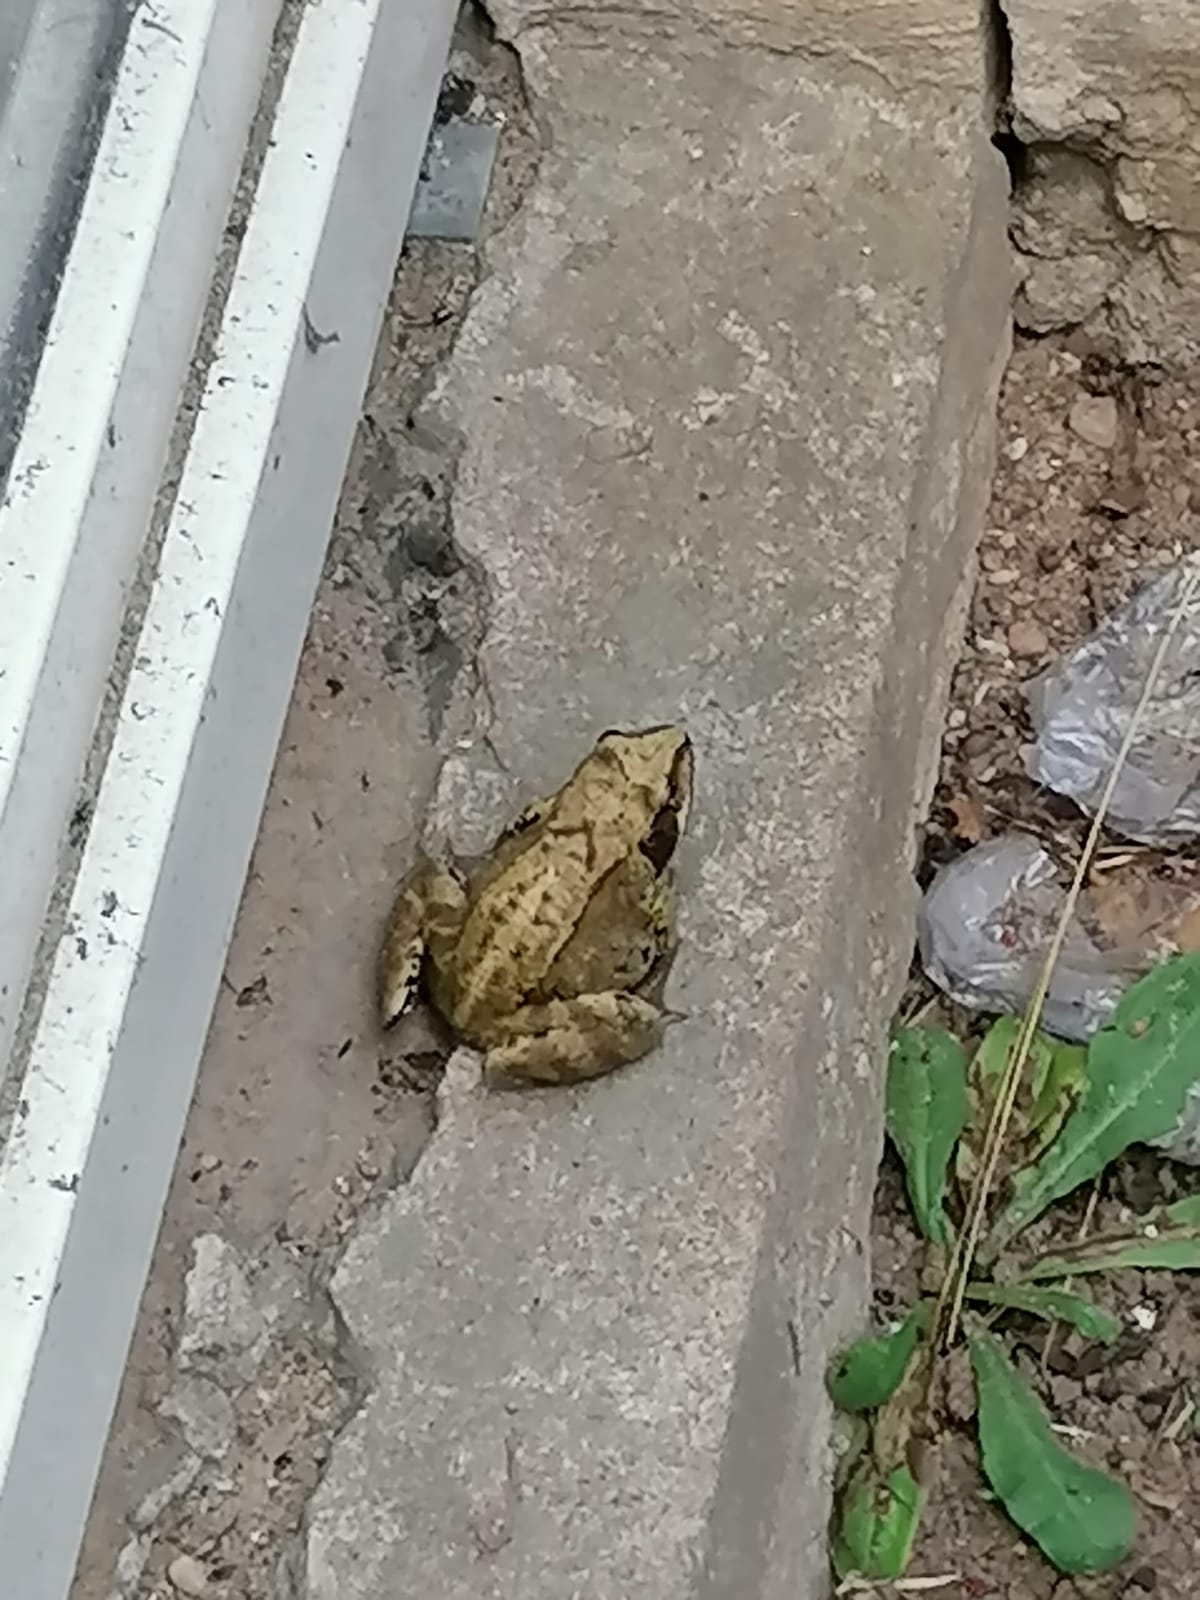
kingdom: Animalia
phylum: Chordata
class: Amphibia
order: Anura
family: Ranidae
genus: Rana
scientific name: Rana temporaria
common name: Common frog
